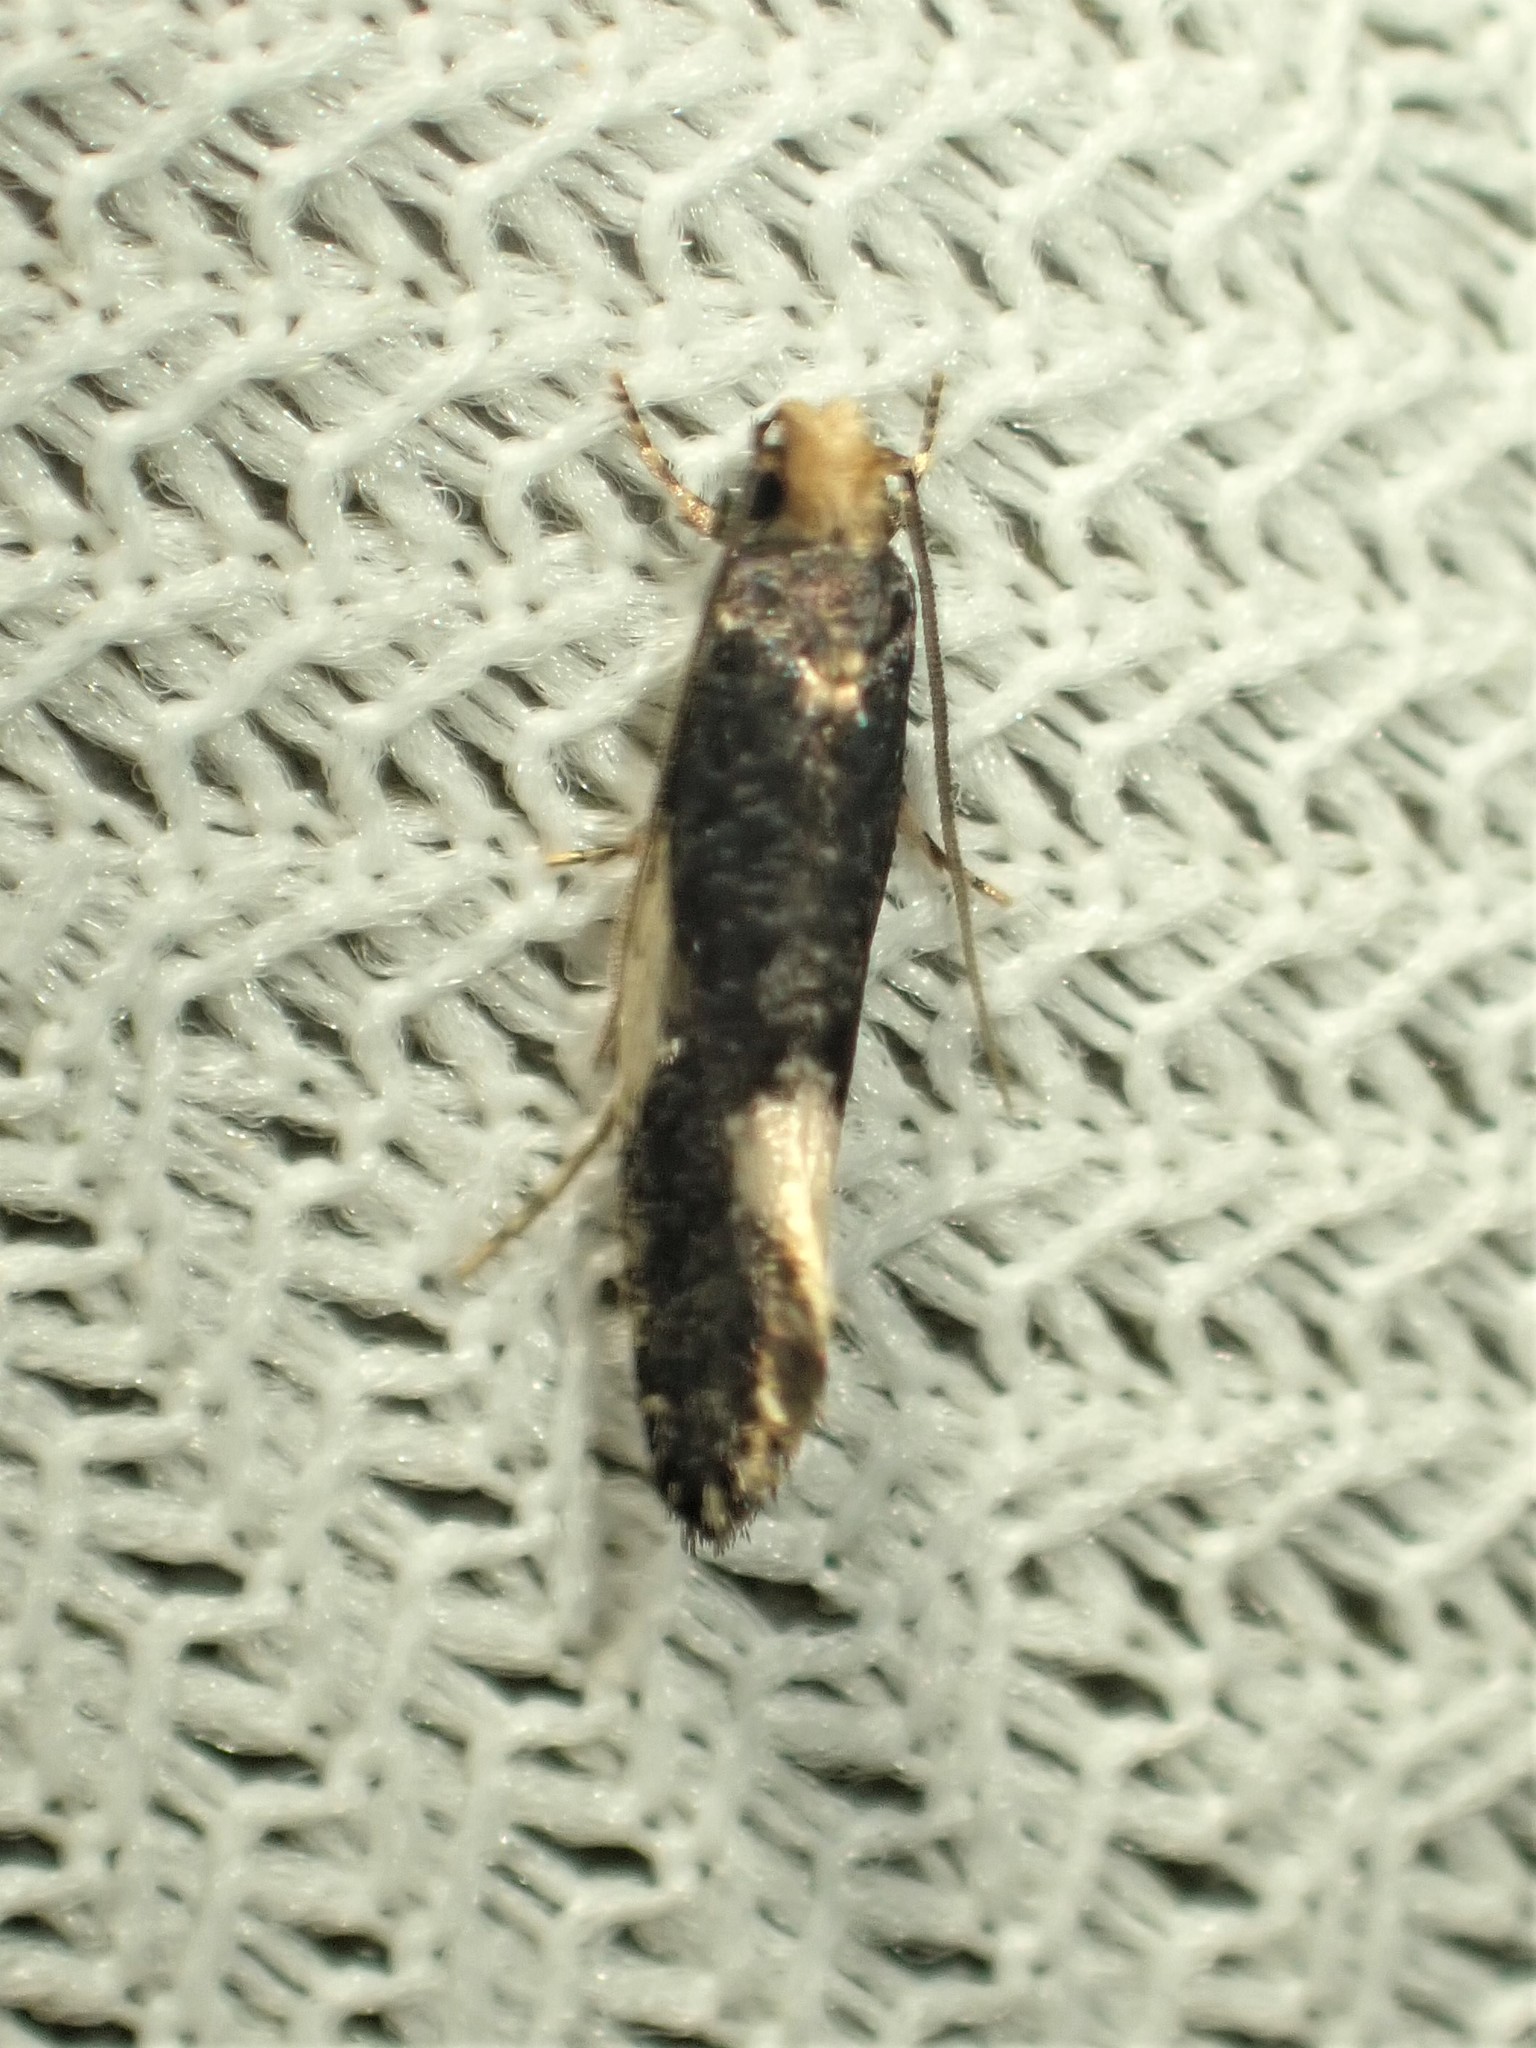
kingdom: Animalia
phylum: Arthropoda
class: Insecta
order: Lepidoptera
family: Tineidae
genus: Monopis
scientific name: Monopis spilotella
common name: Orange-headed monopis
